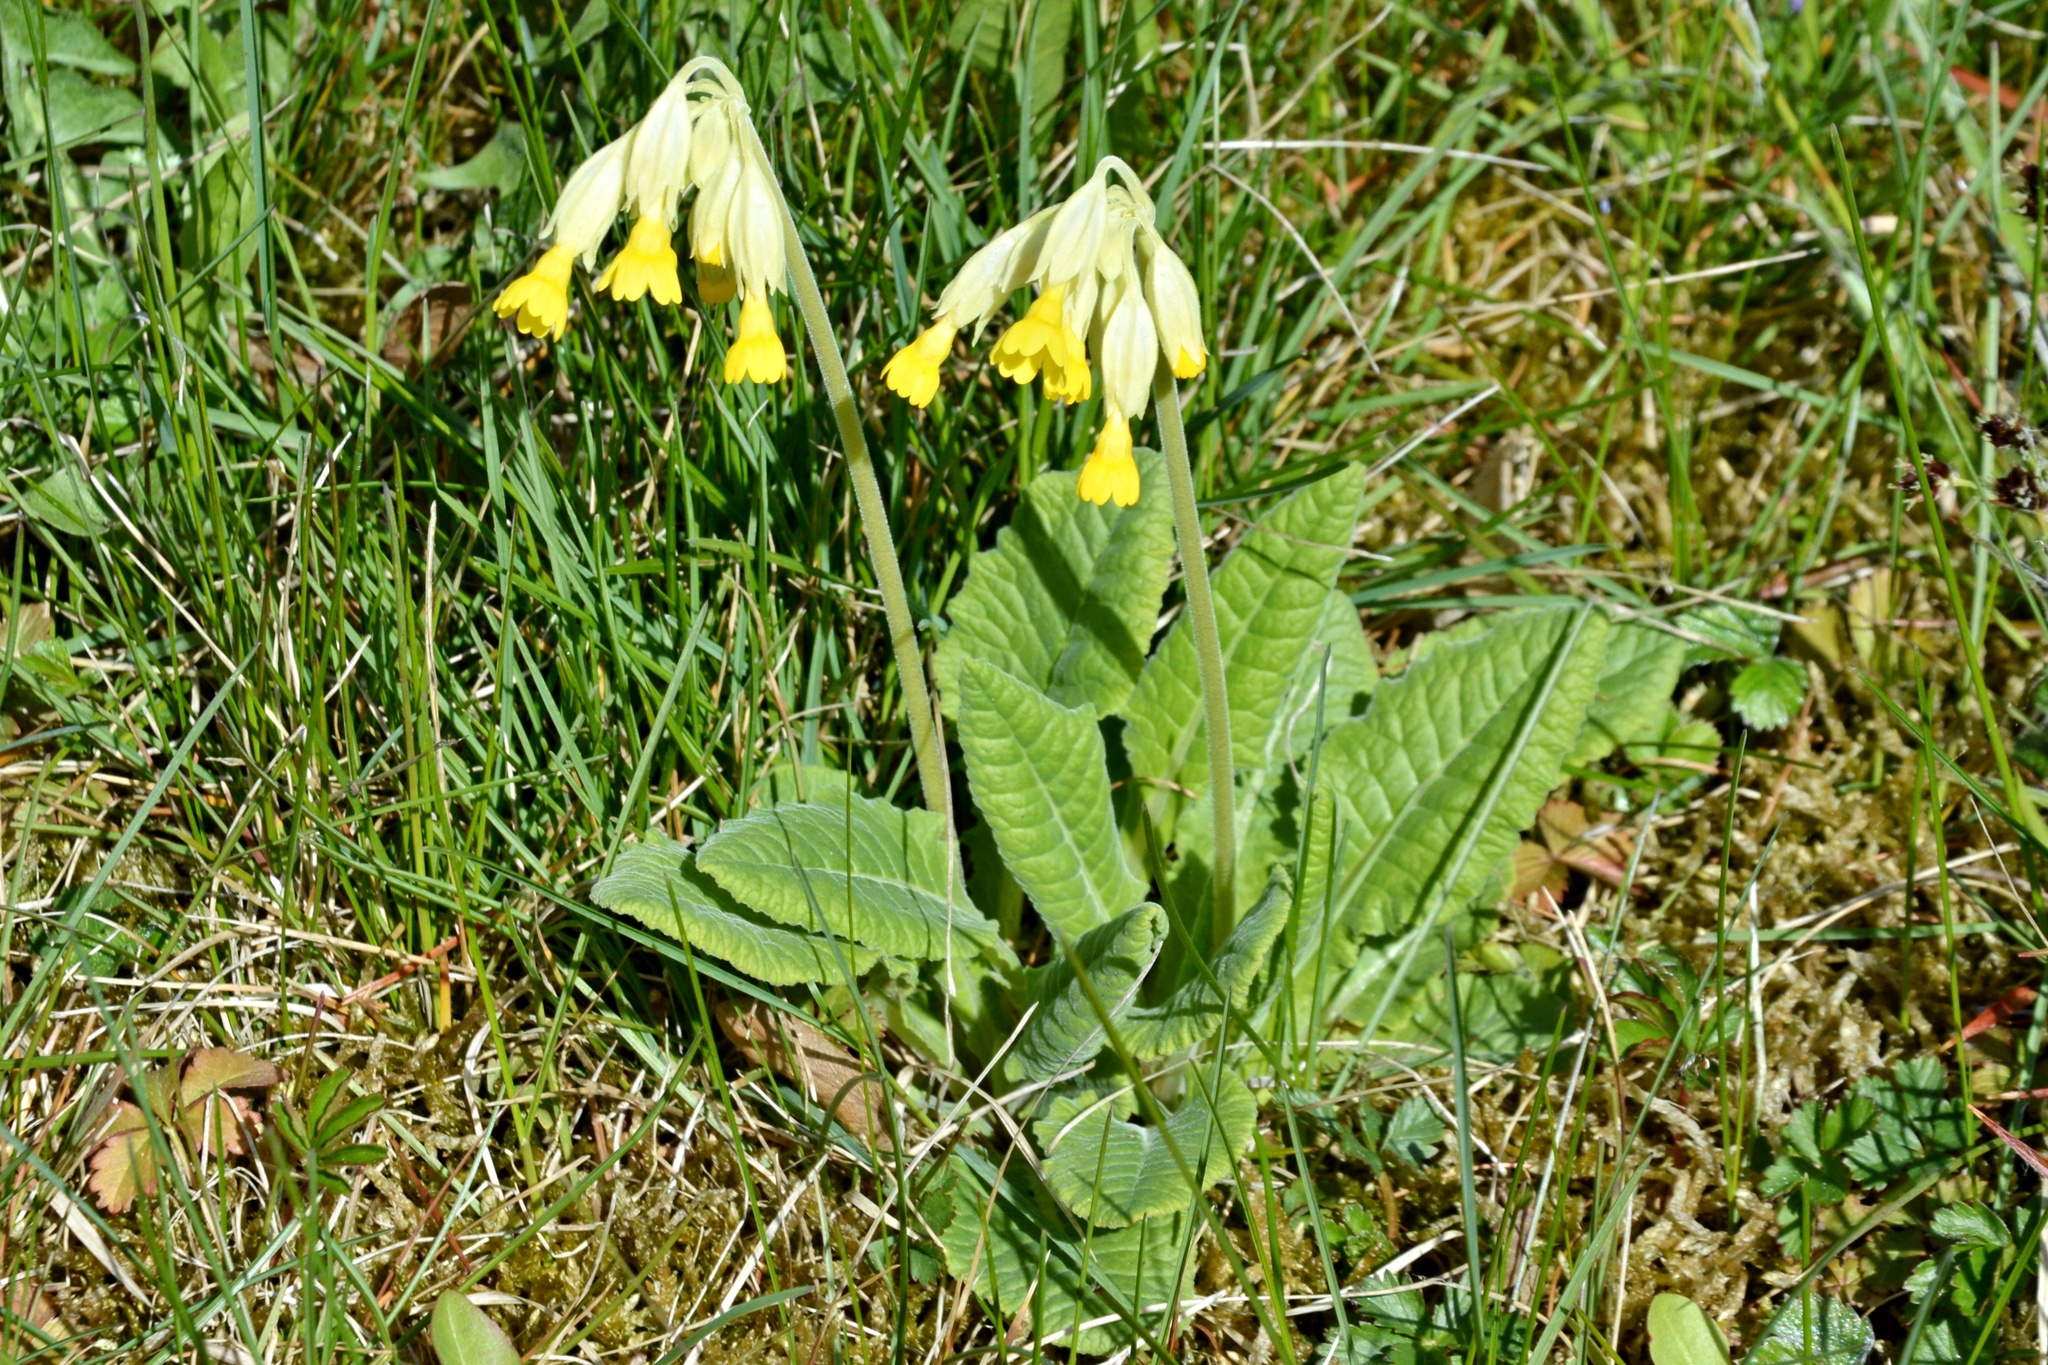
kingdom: Plantae
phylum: Tracheophyta
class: Magnoliopsida
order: Ericales
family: Primulaceae
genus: Primula
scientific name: Primula veris
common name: Cowslip
